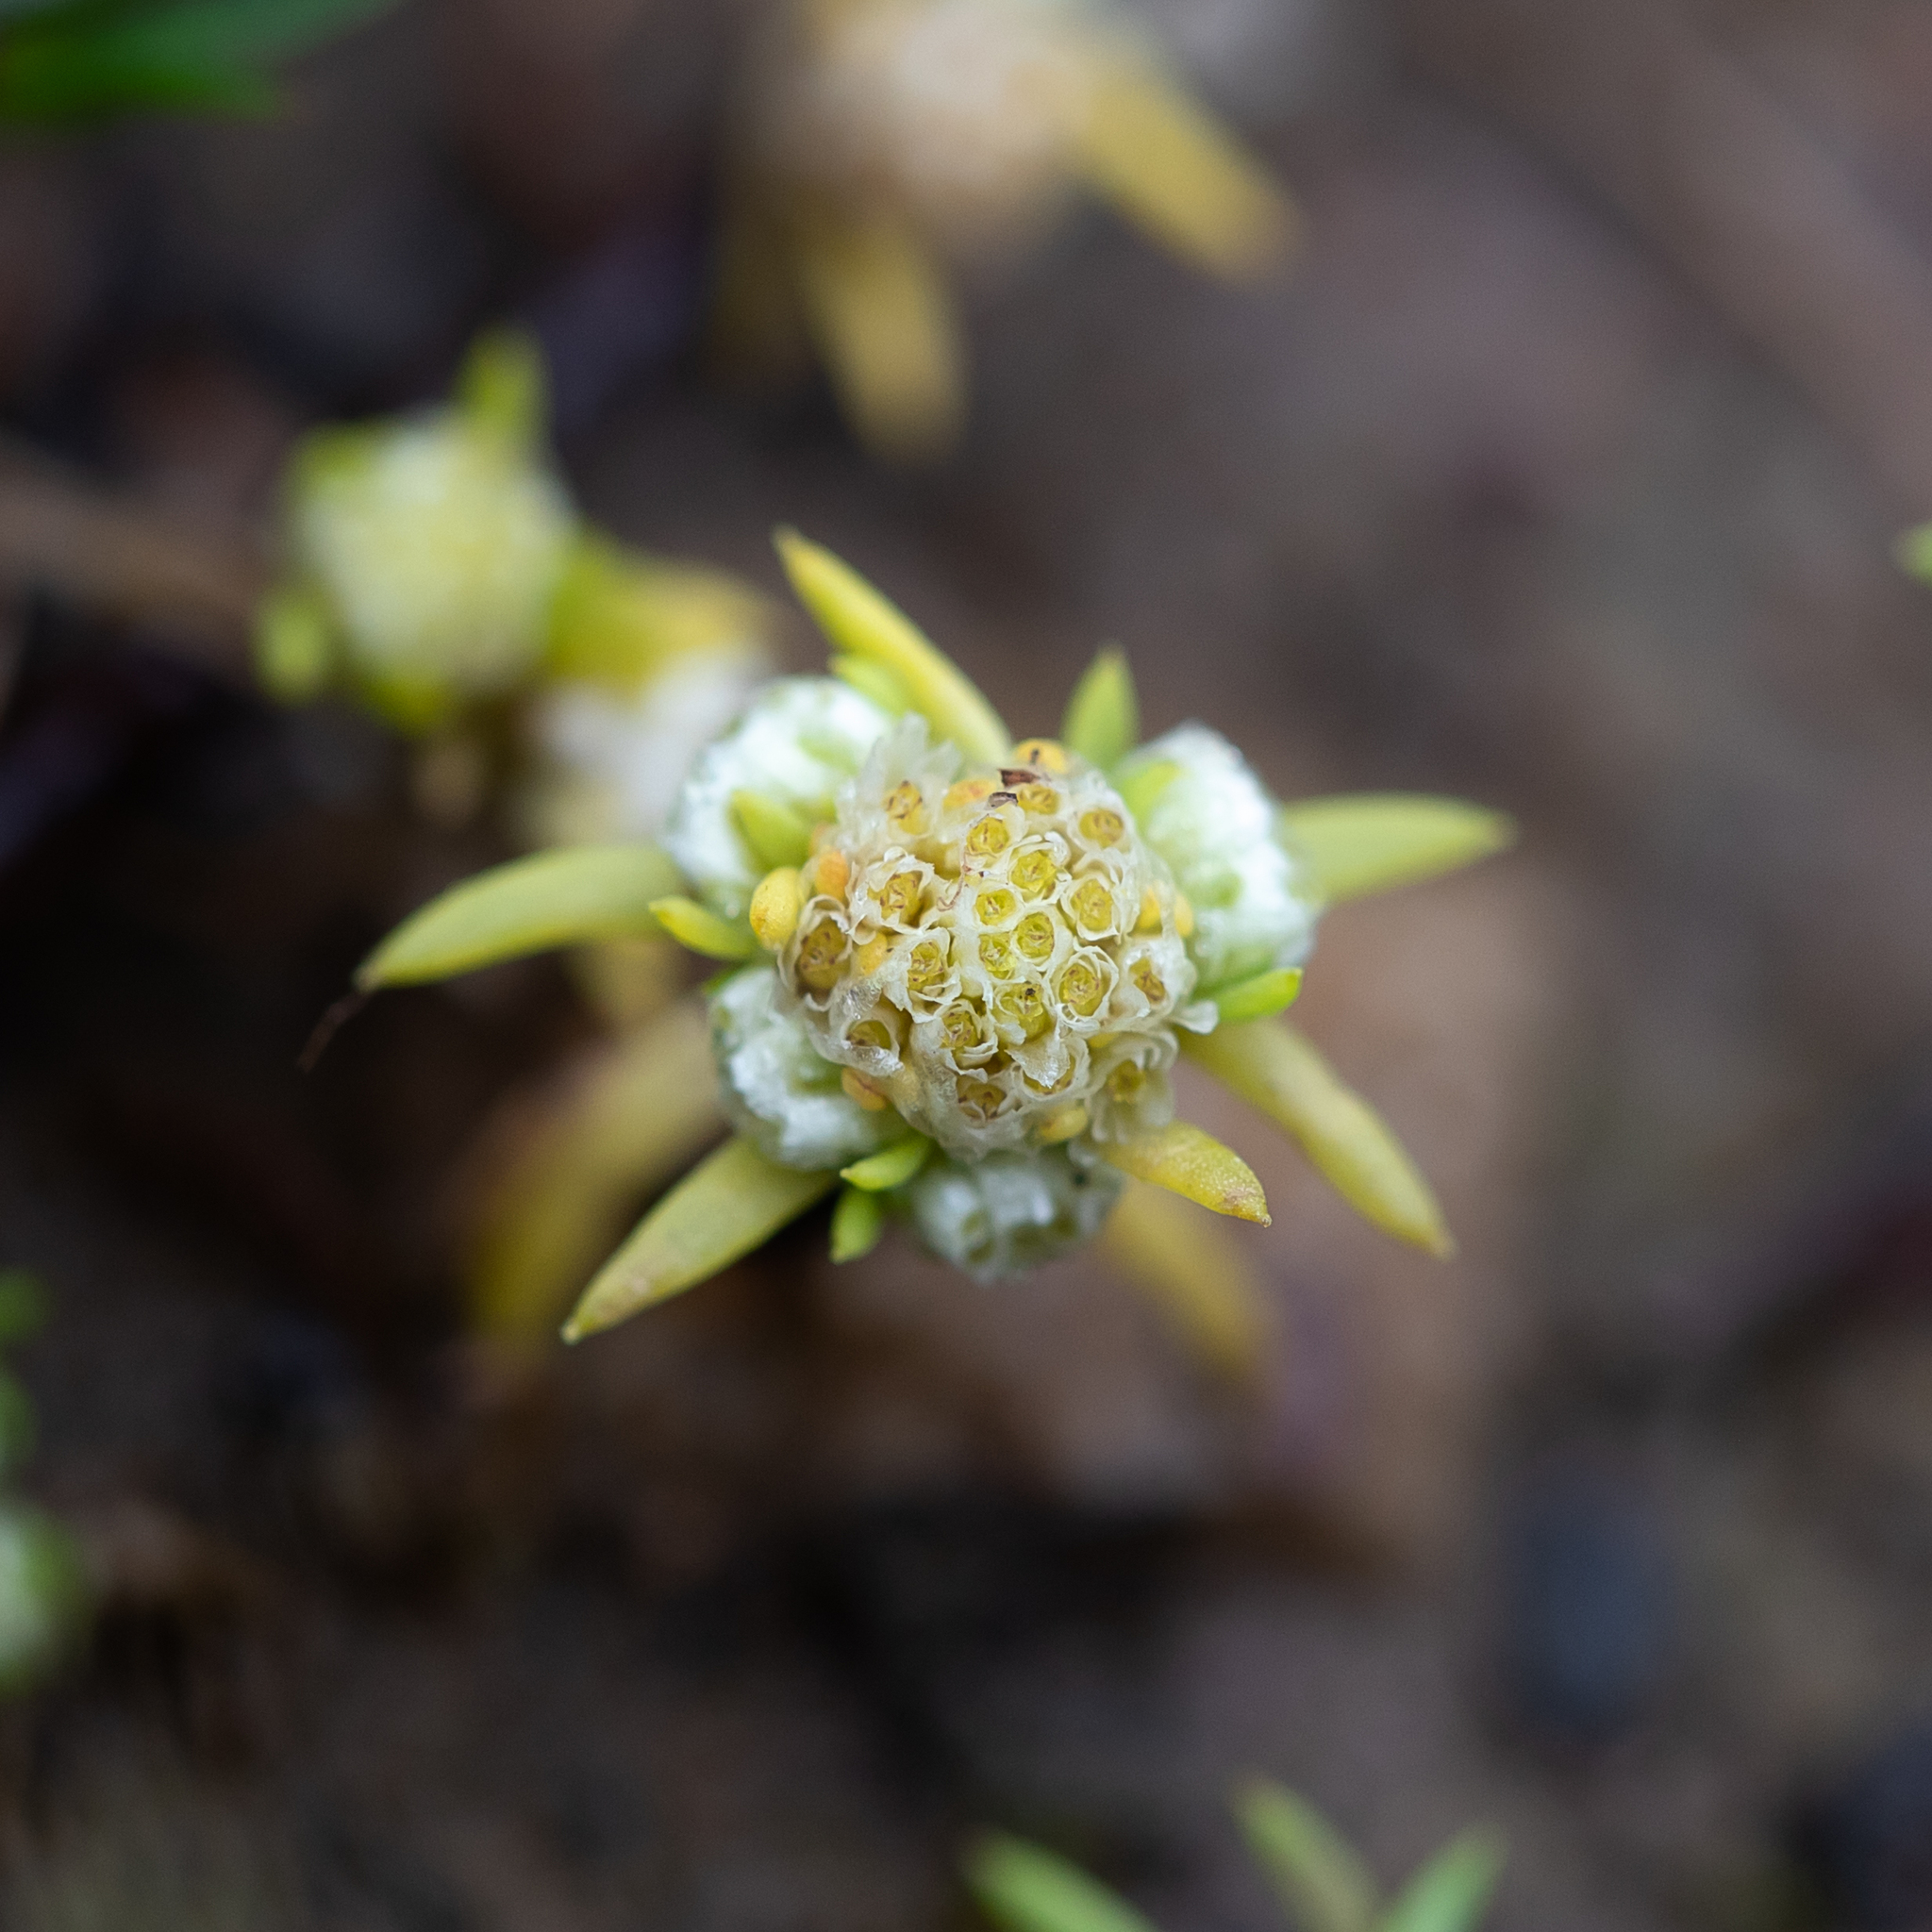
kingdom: Plantae
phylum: Tracheophyta
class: Magnoliopsida
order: Asterales
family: Asteraceae
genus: Siloxerus
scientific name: Siloxerus multiflorus
